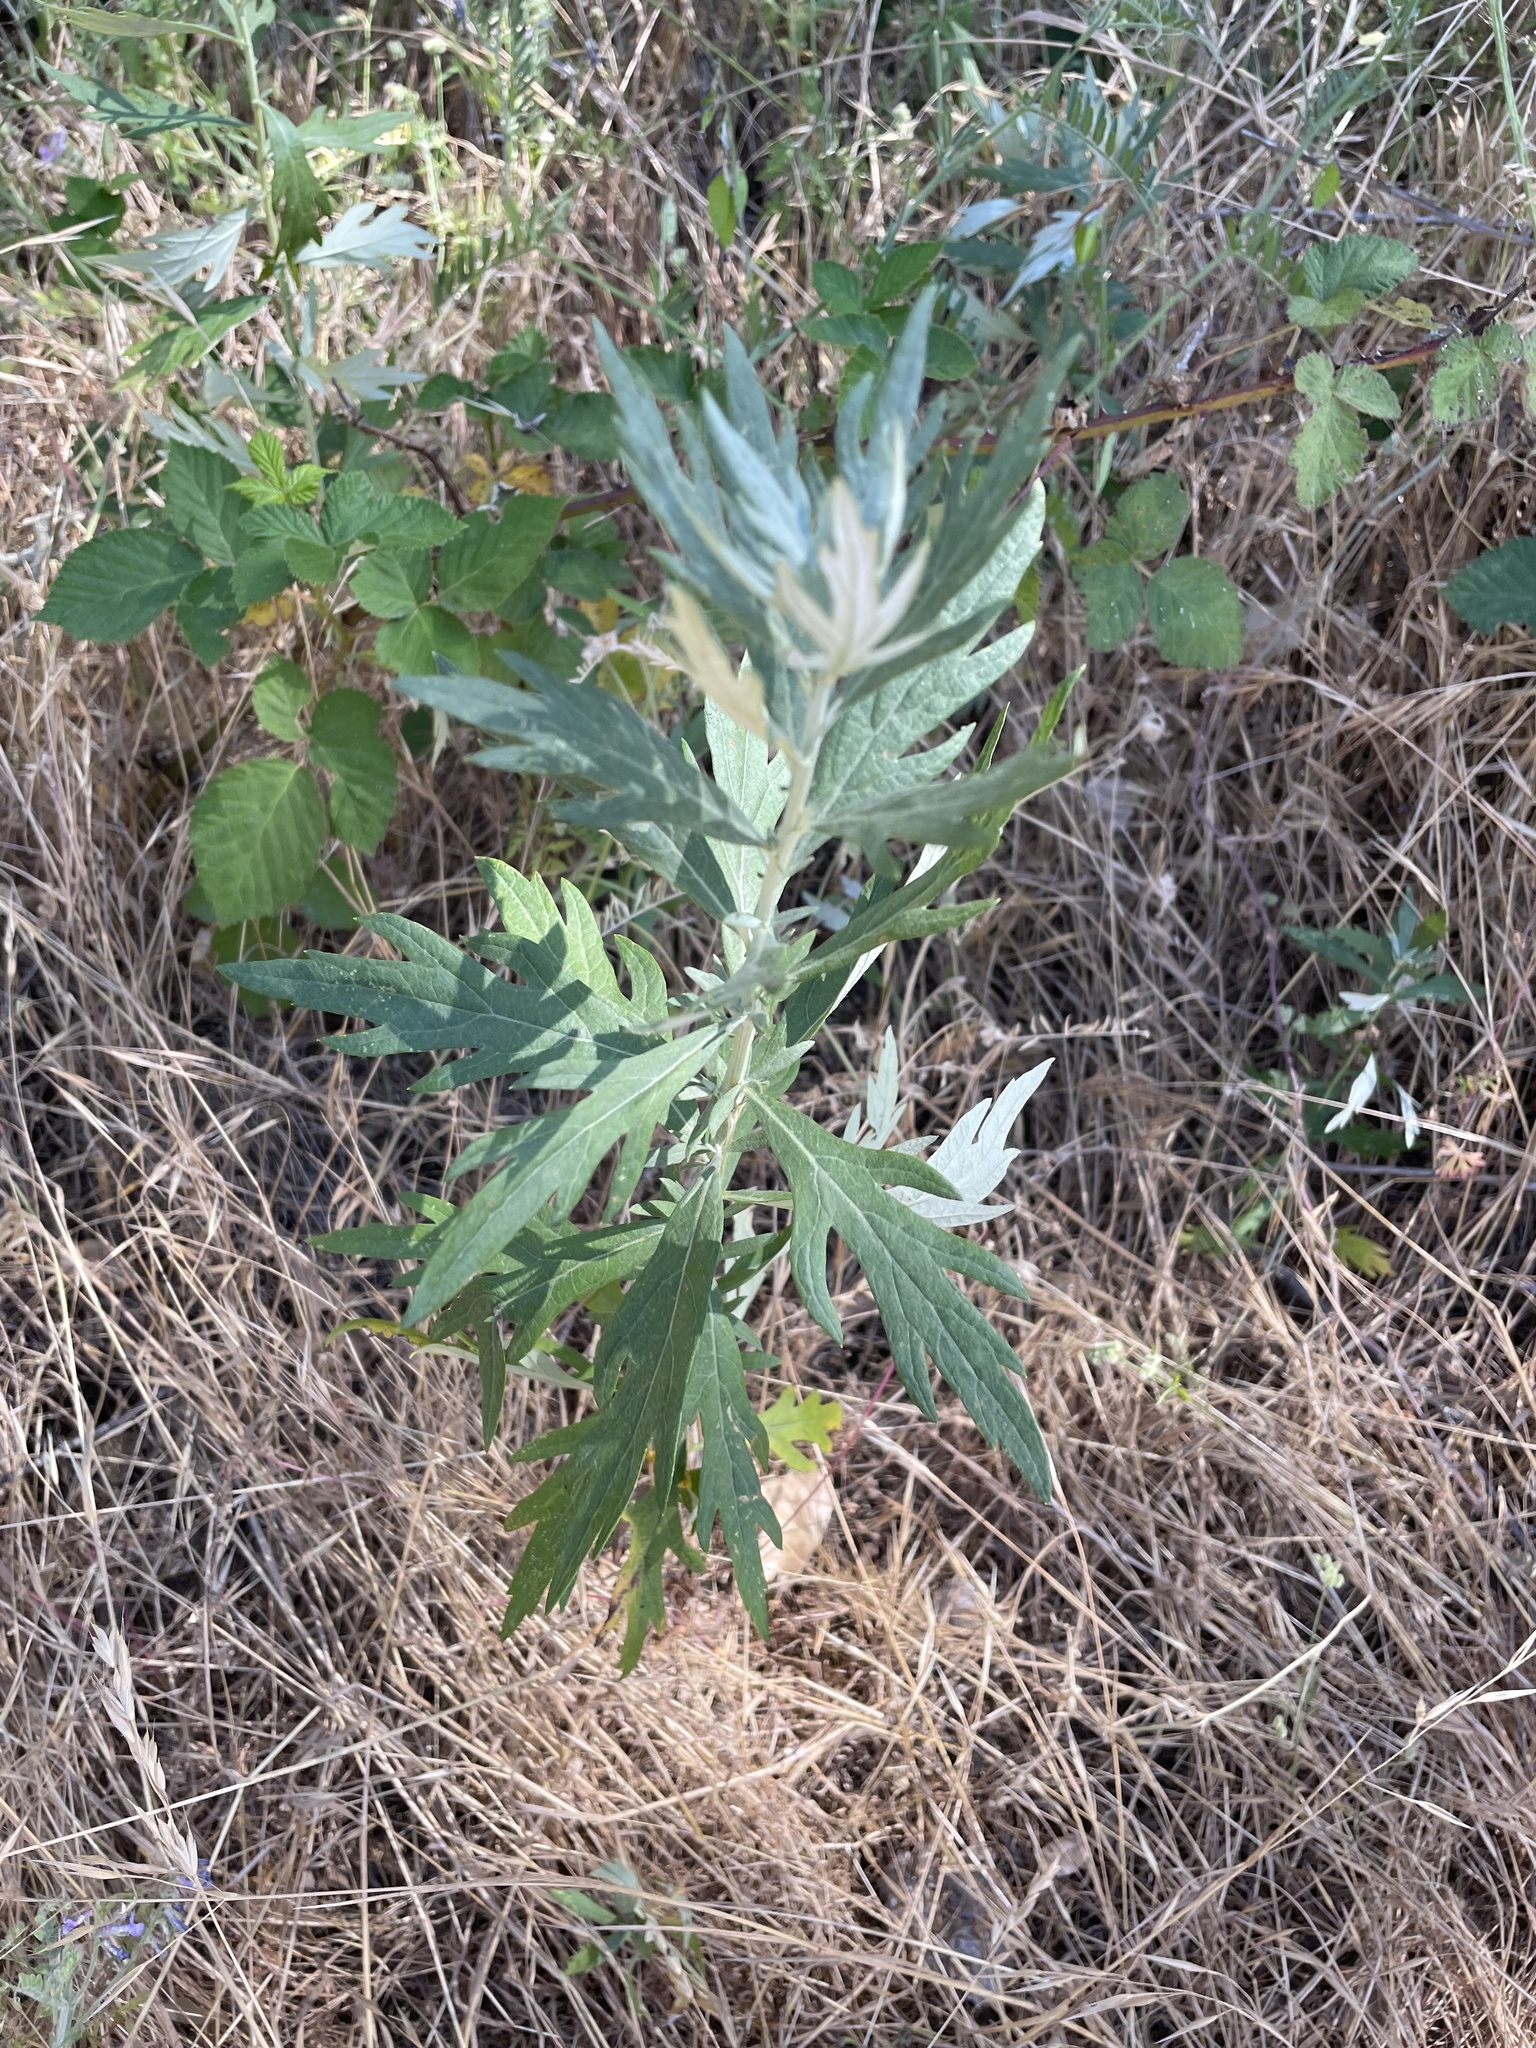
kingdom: Plantae
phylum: Tracheophyta
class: Magnoliopsida
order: Asterales
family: Asteraceae
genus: Artemisia
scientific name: Artemisia douglasiana
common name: Northwest mugwort
